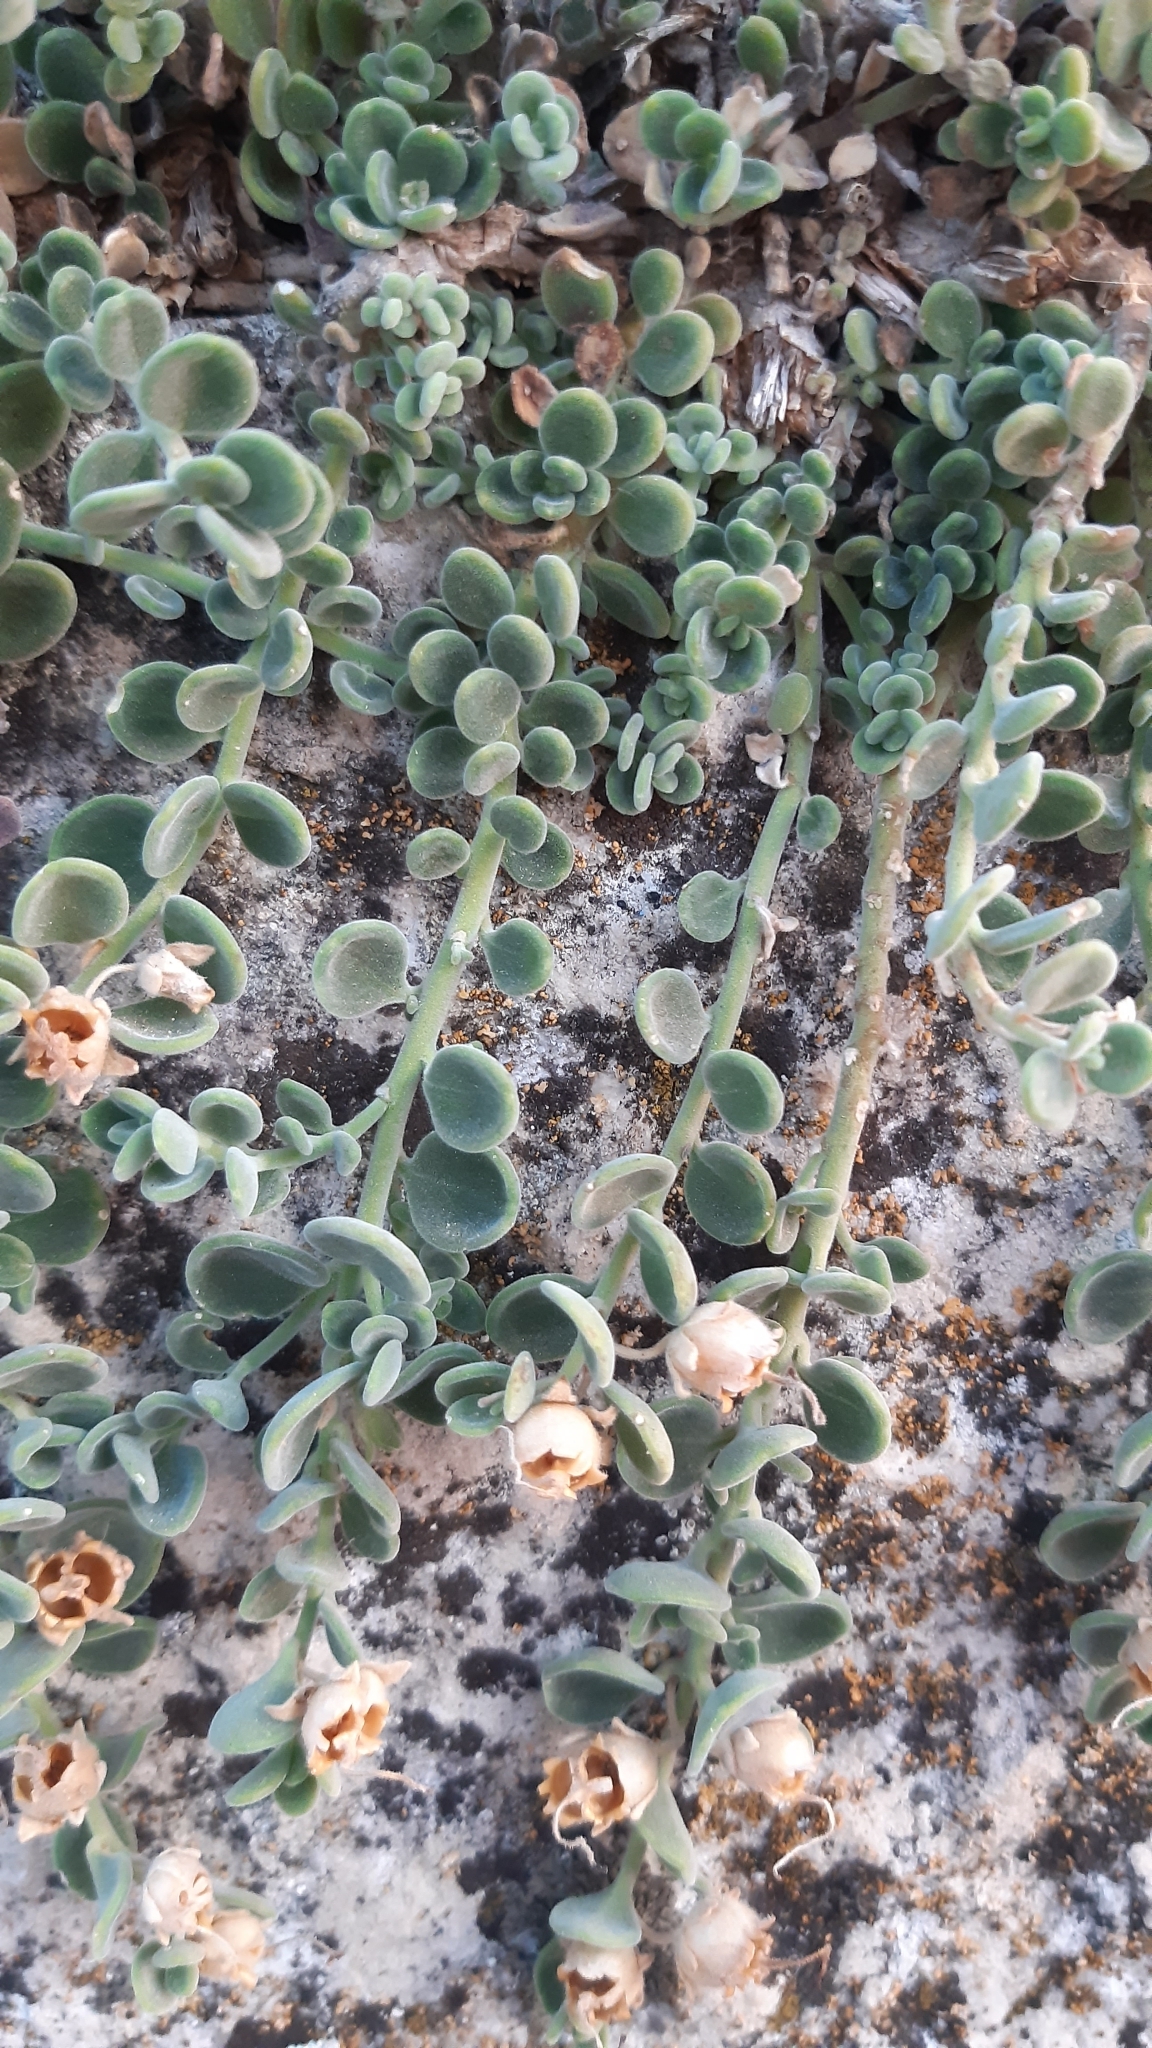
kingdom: Plantae
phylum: Tracheophyta
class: Magnoliopsida
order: Lamiales
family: Plantaginaceae
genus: Antirrhinum
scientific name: Antirrhinum microphyllum
